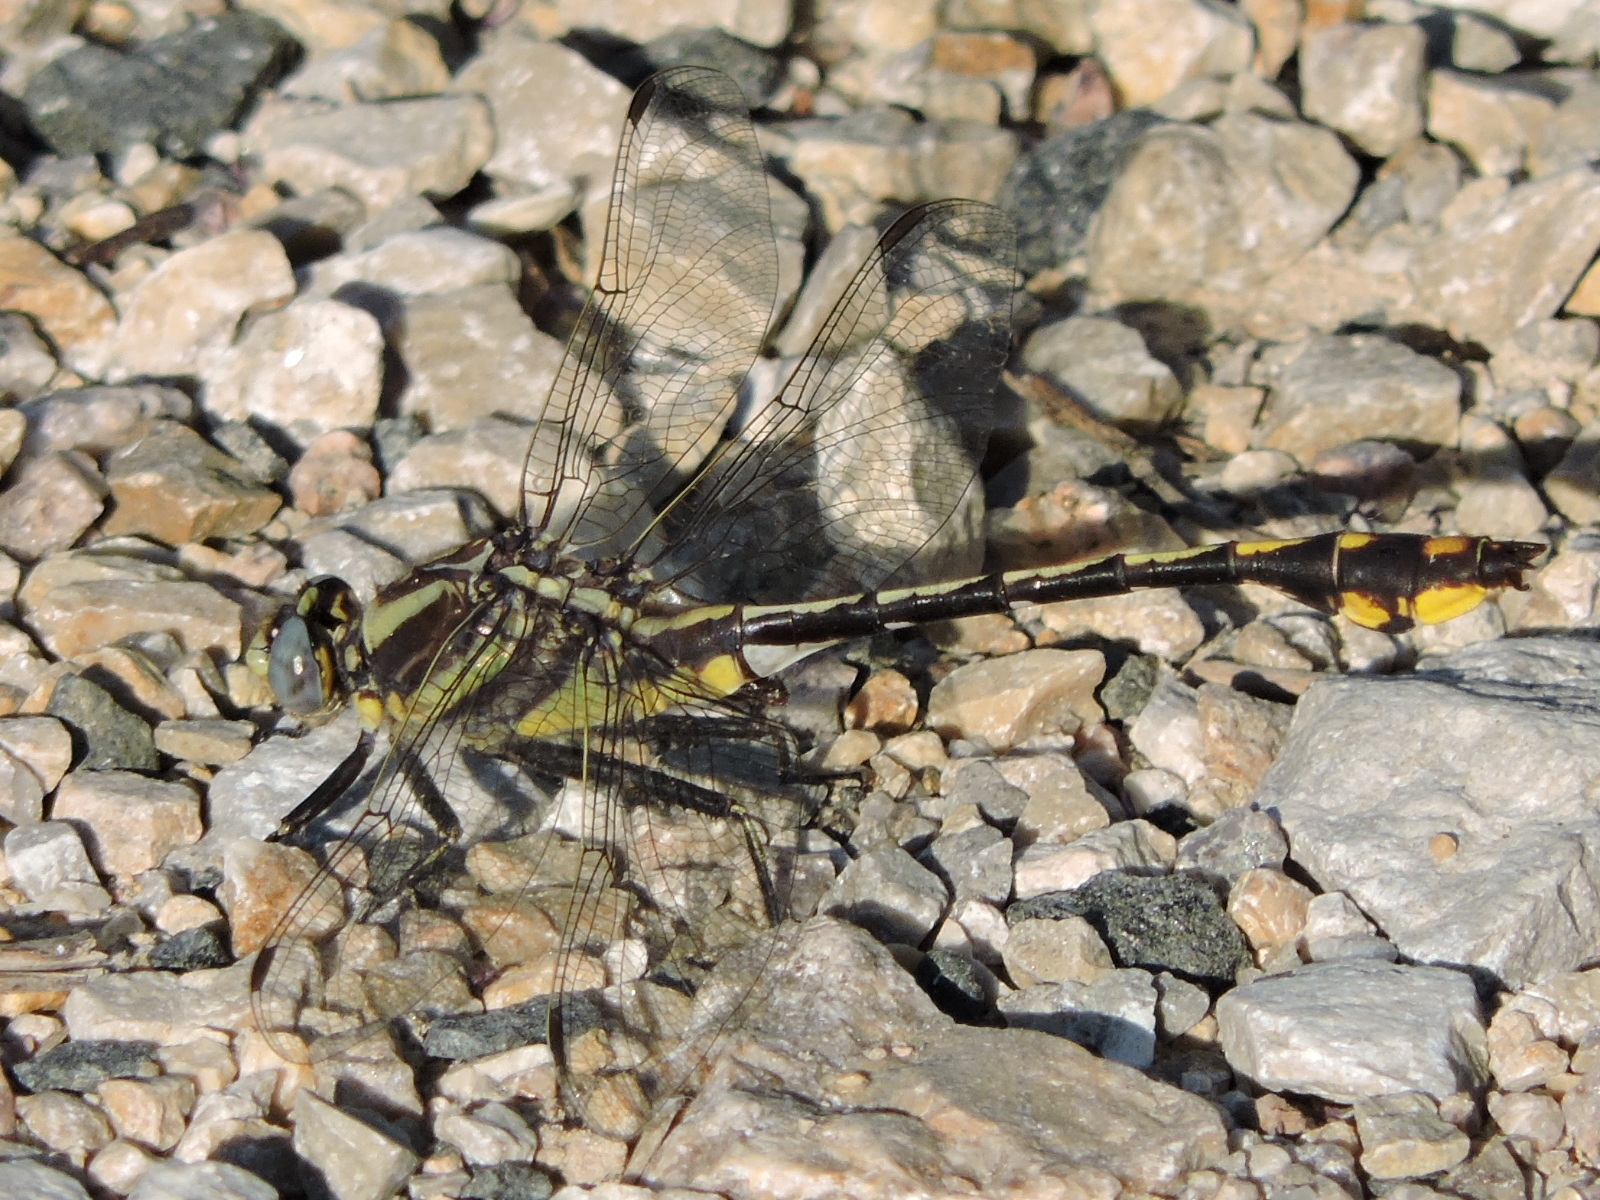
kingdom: Animalia
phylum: Arthropoda
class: Insecta
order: Odonata
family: Gomphidae
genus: Gomphurus
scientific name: Gomphurus externus
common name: Plains clubtail
